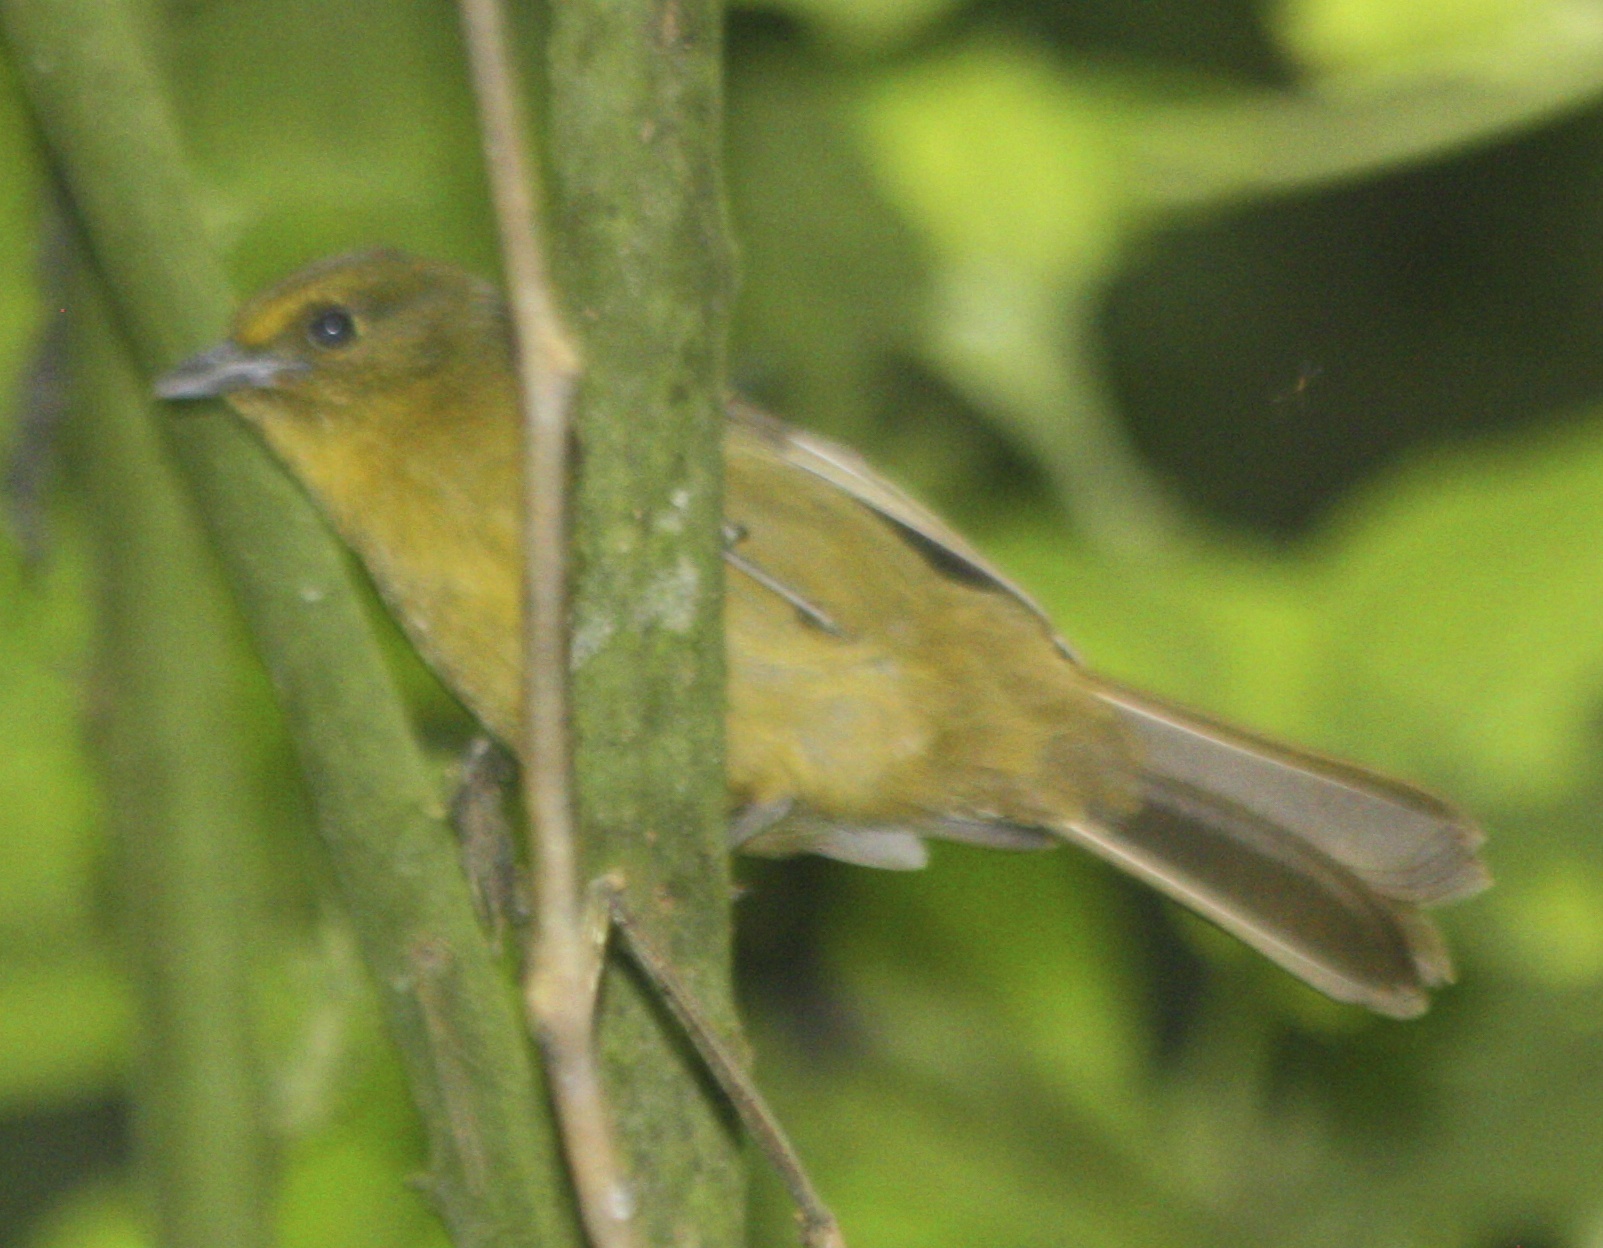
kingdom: Animalia
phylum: Chordata
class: Aves
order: Passeriformes
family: Thraupidae
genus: Sphenopsis
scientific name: Sphenopsis frontalis
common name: Oleaginous hemispingus
